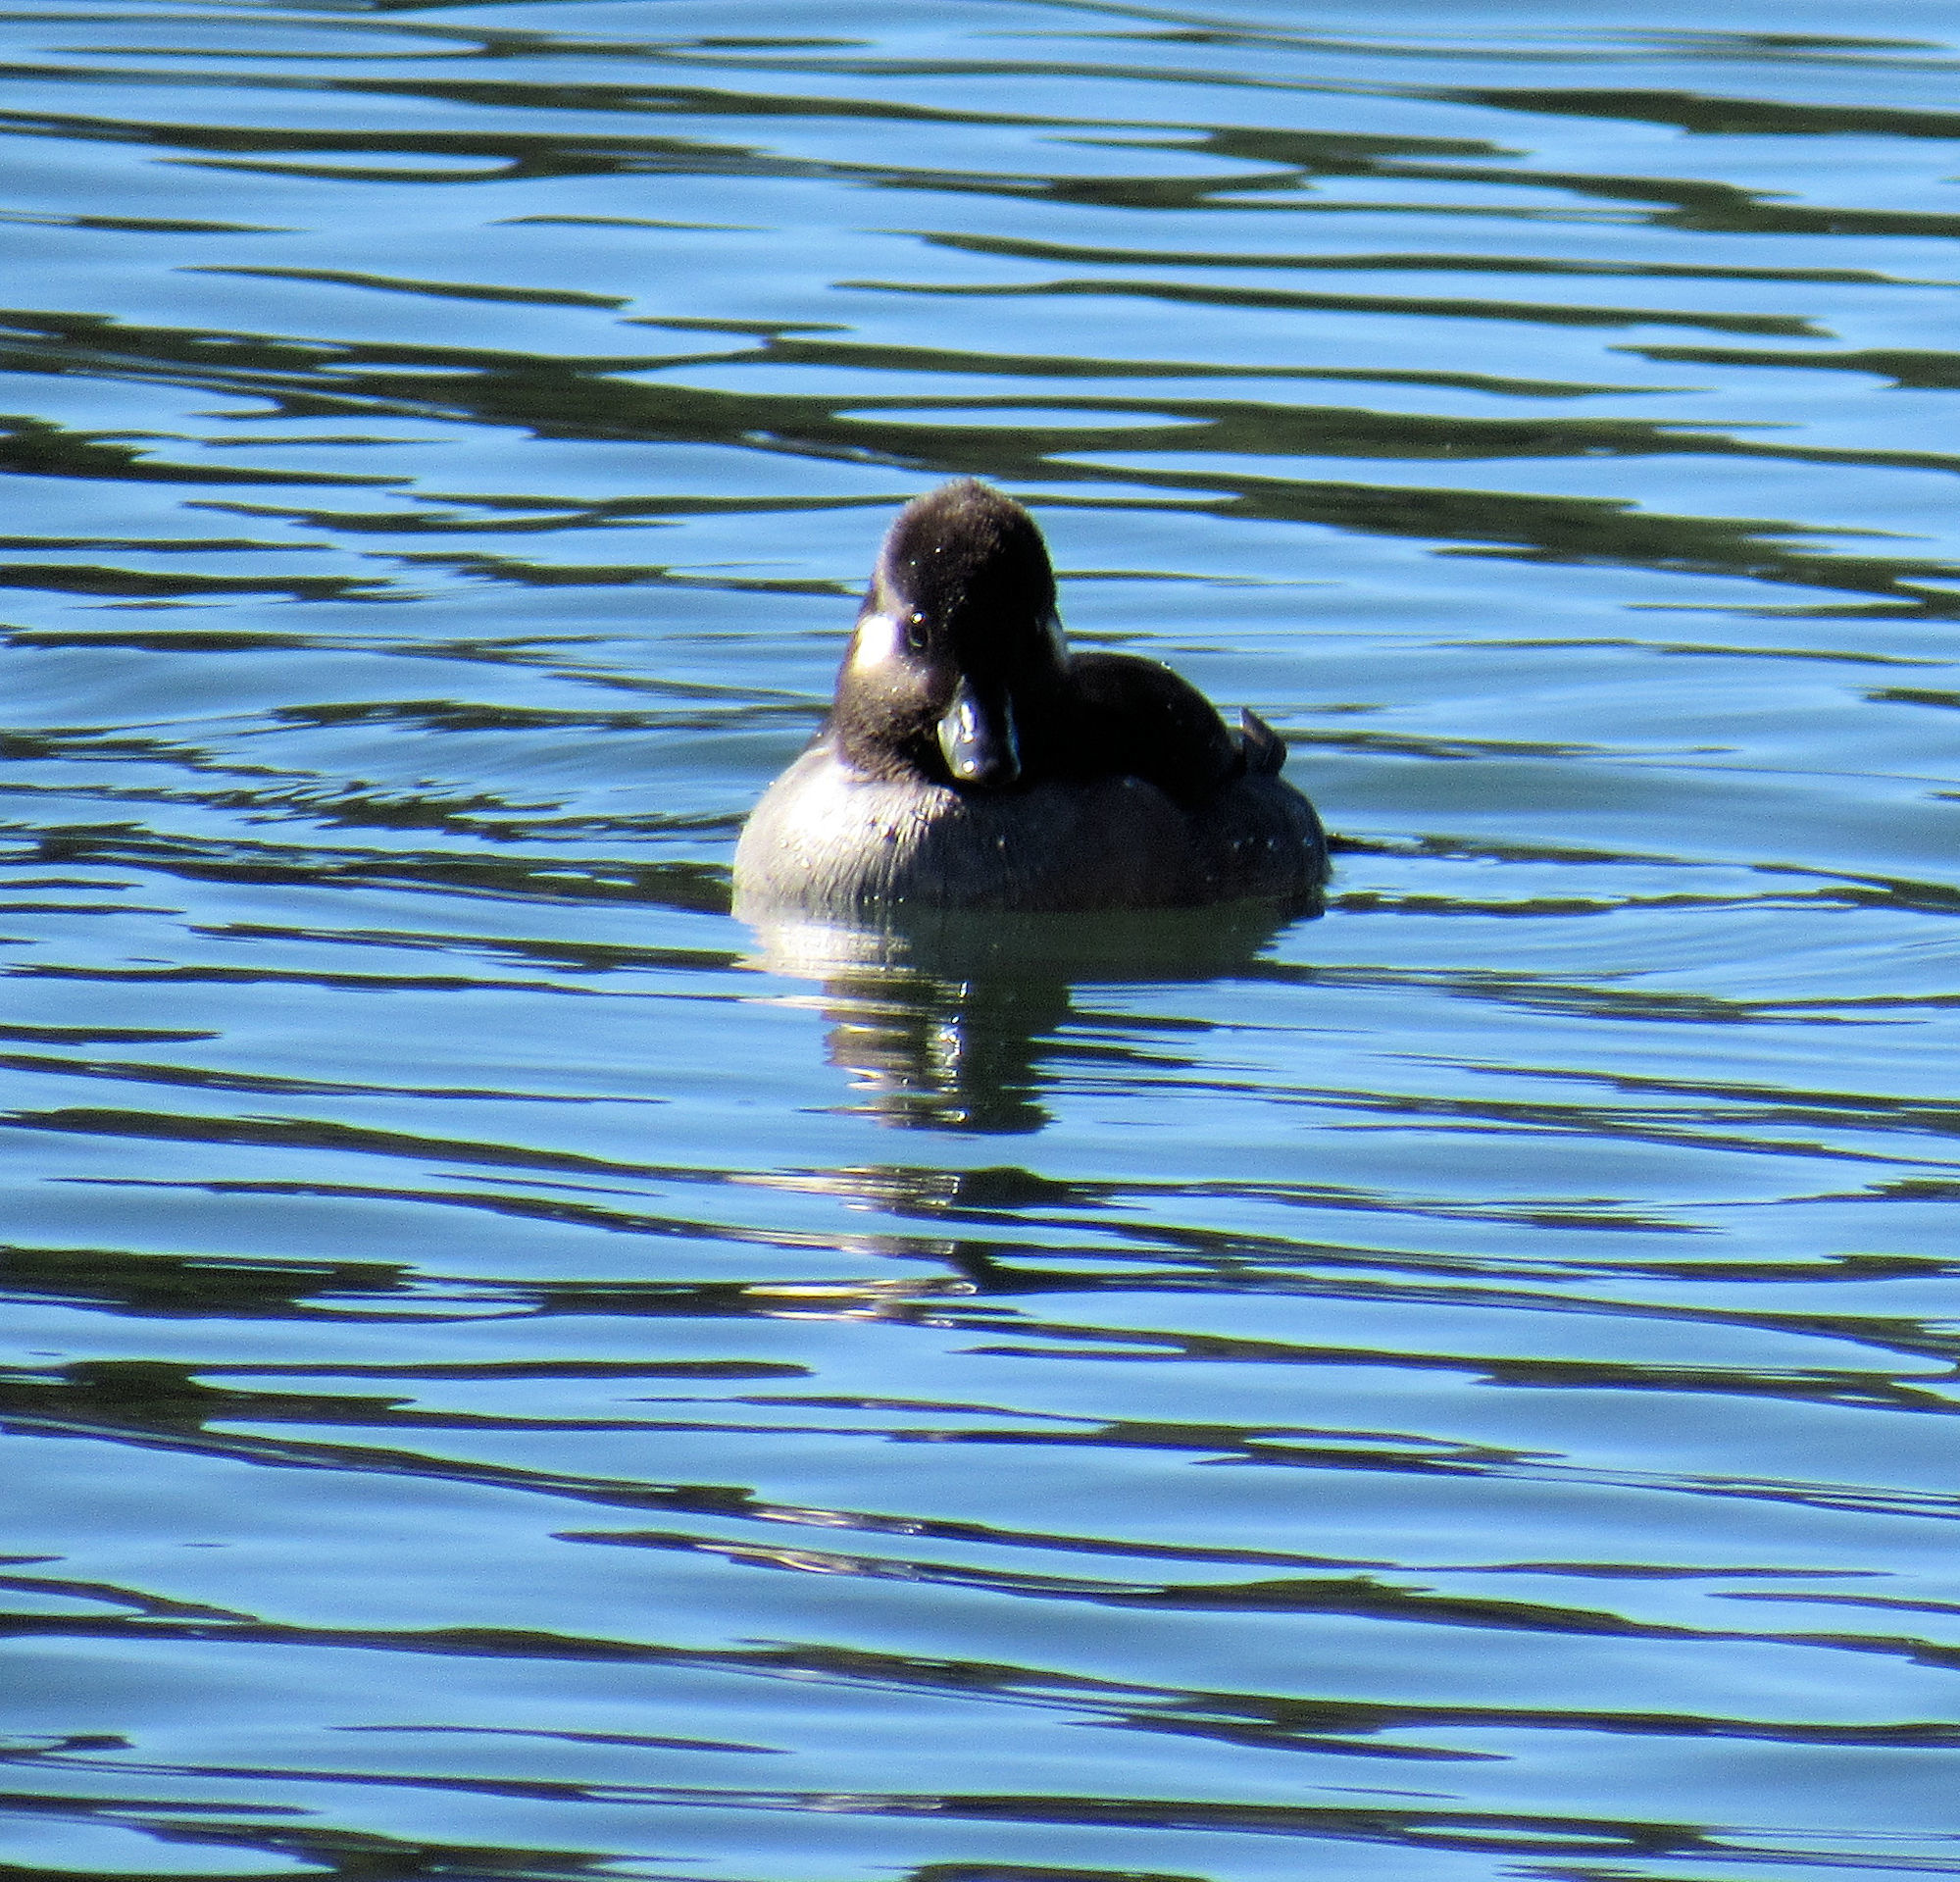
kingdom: Animalia
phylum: Chordata
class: Aves
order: Anseriformes
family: Anatidae
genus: Bucephala
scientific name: Bucephala albeola
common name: Bufflehead
